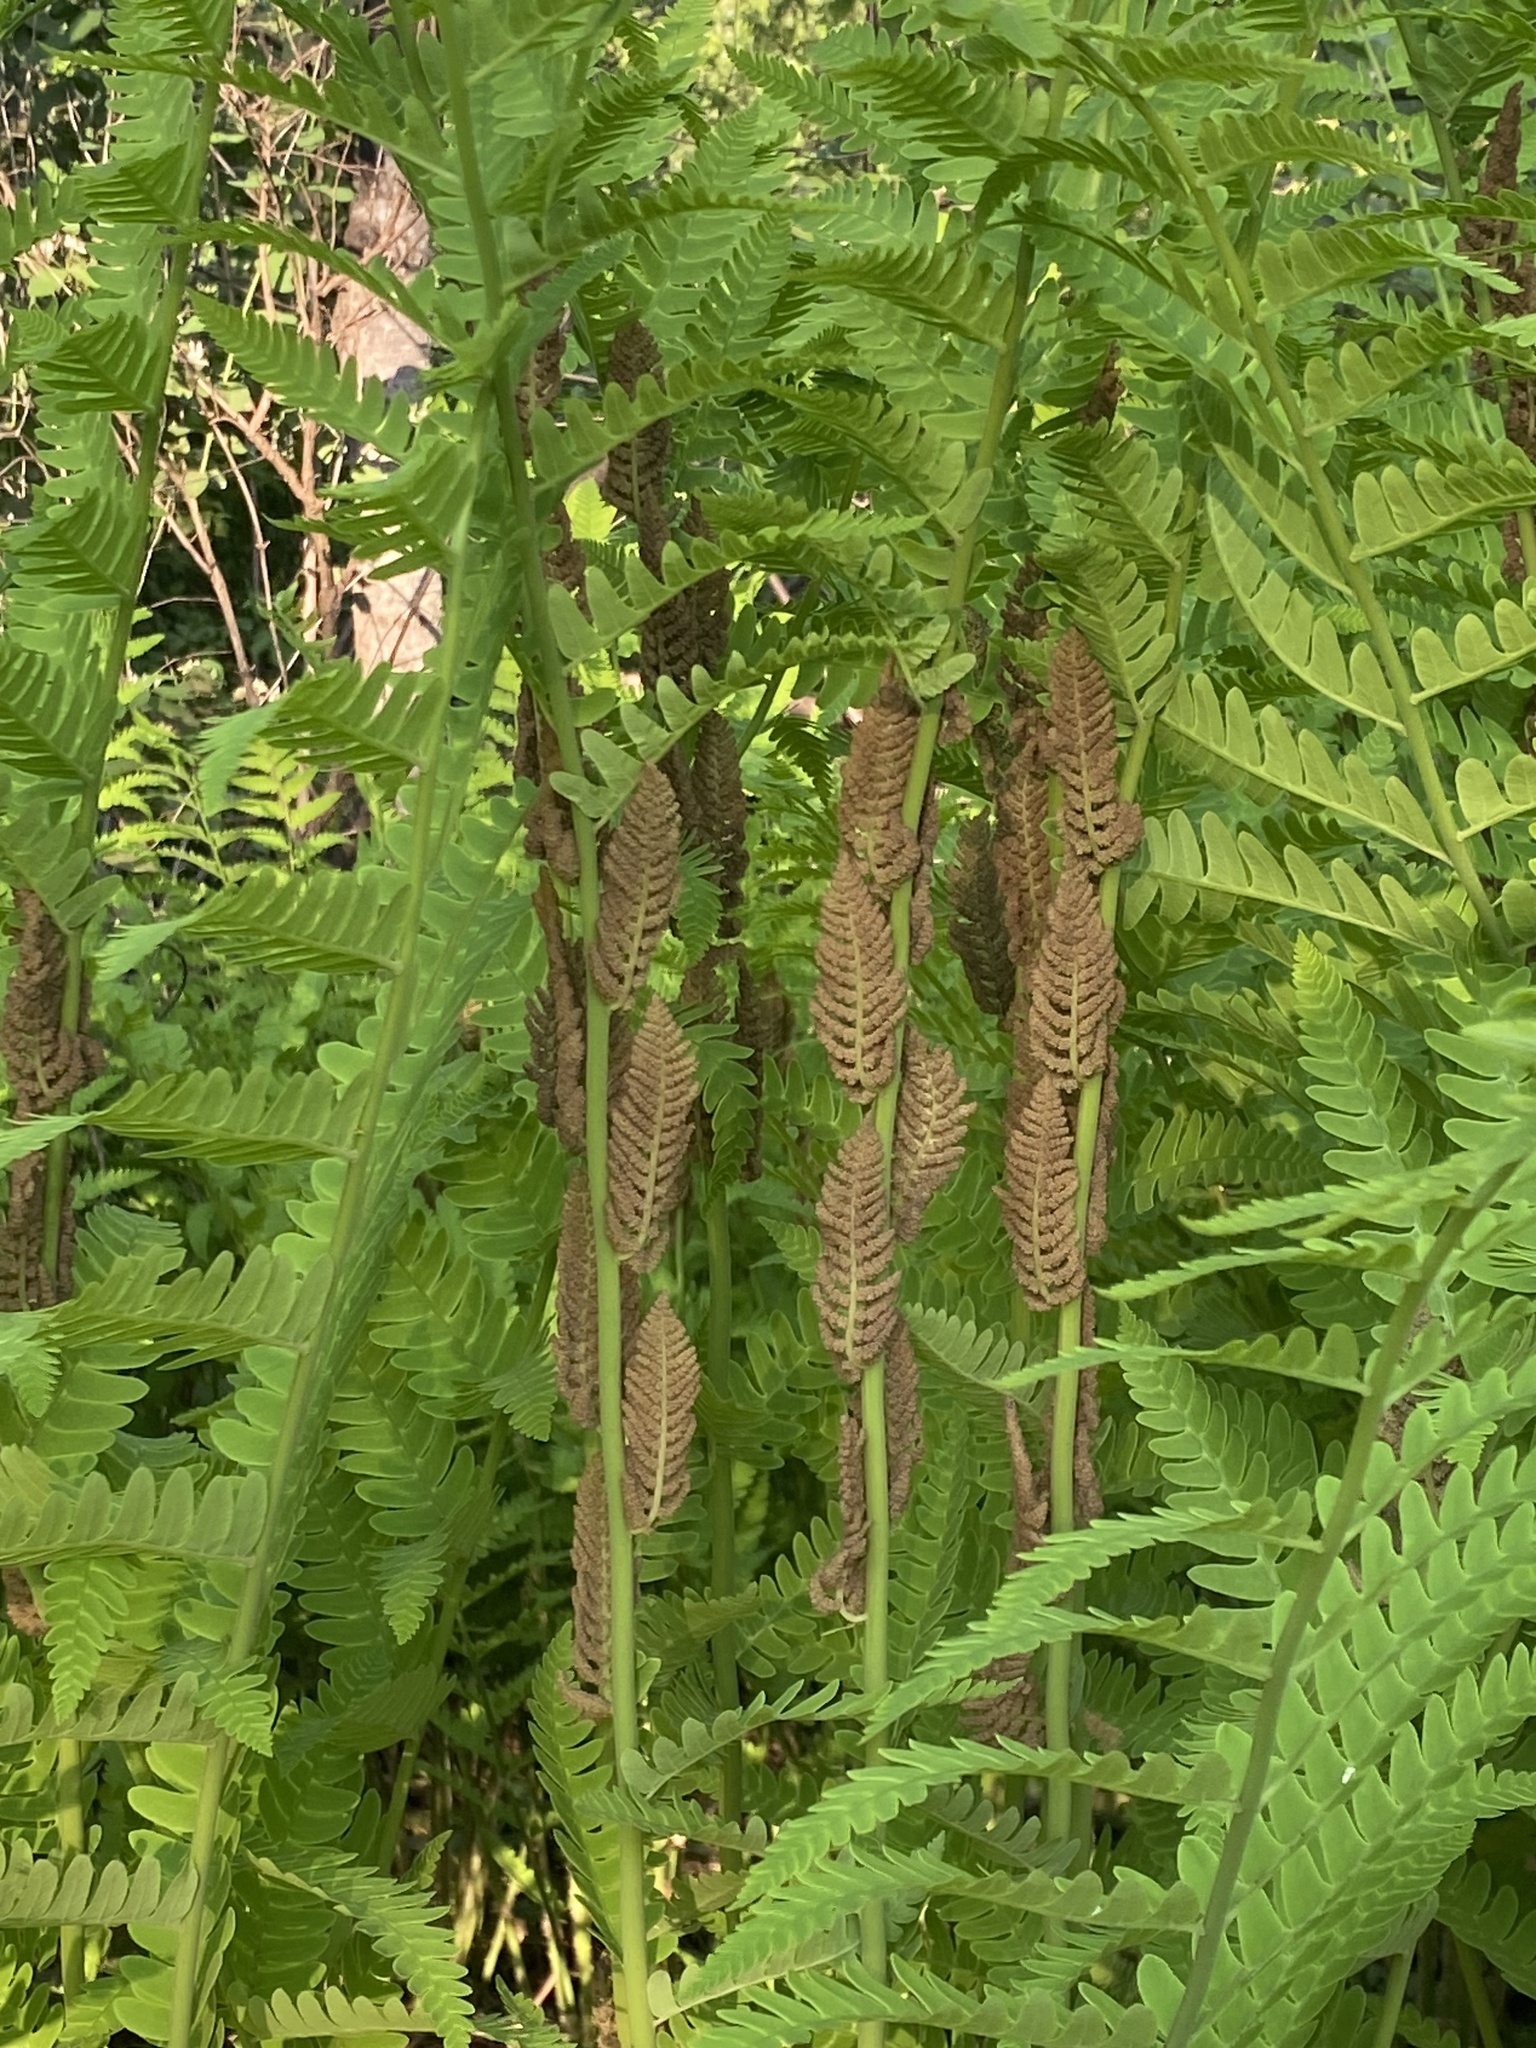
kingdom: Plantae
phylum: Tracheophyta
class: Polypodiopsida
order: Osmundales
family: Osmundaceae
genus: Claytosmunda
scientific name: Claytosmunda claytoniana
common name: Clayton's fern
